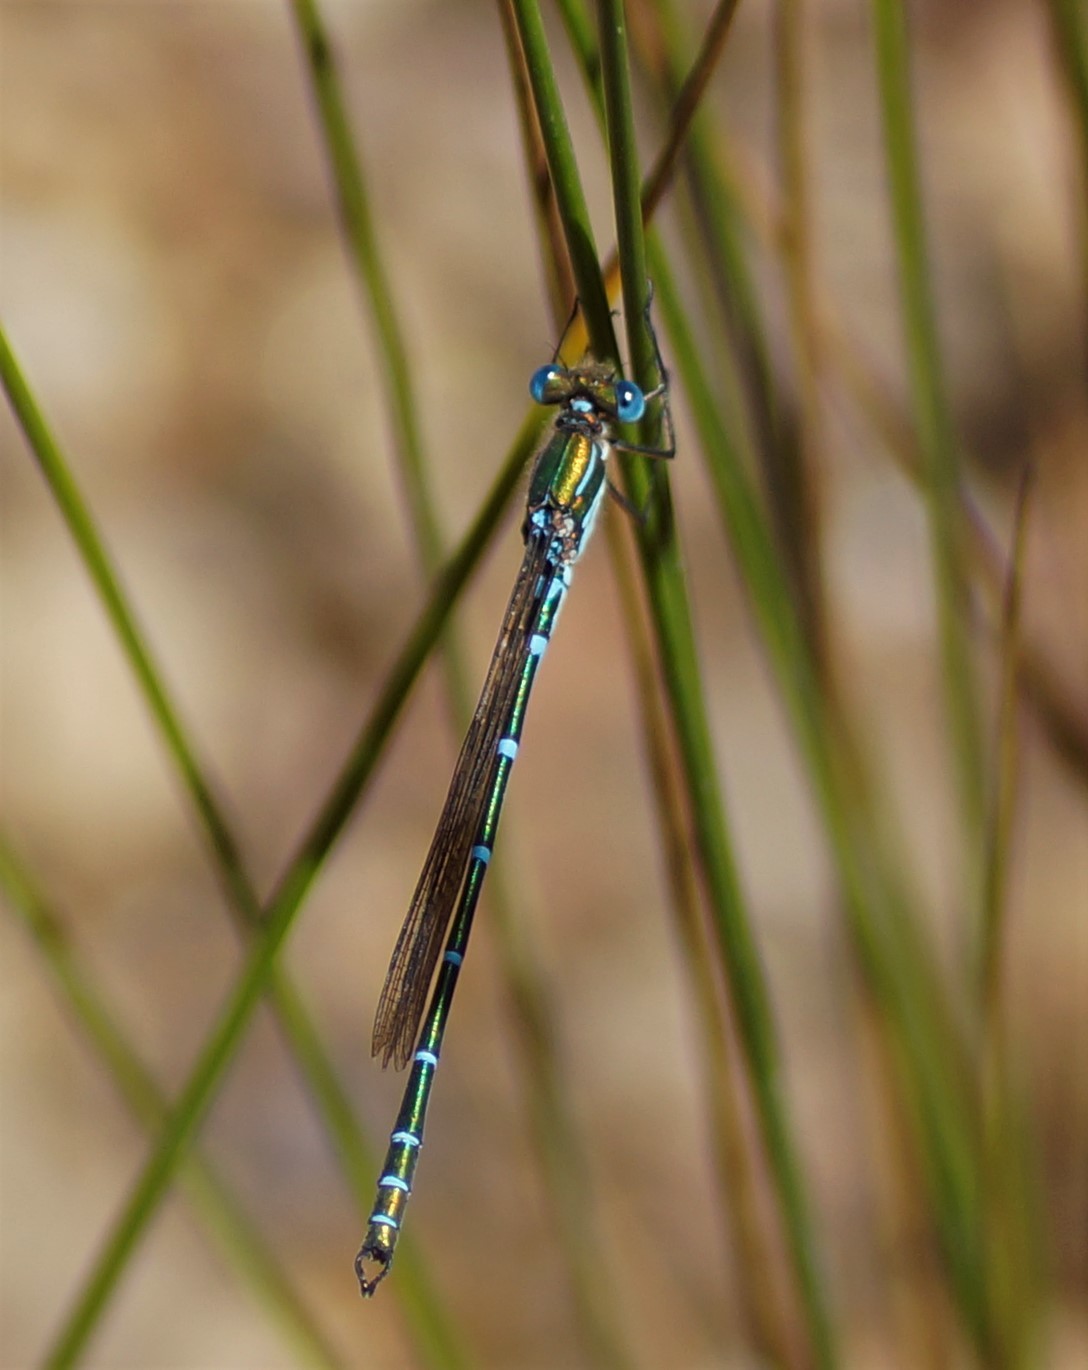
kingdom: Animalia
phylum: Arthropoda
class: Insecta
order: Odonata
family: Lestidae
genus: Austrolestes
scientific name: Austrolestes cingulatus
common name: Metallic ringtail
